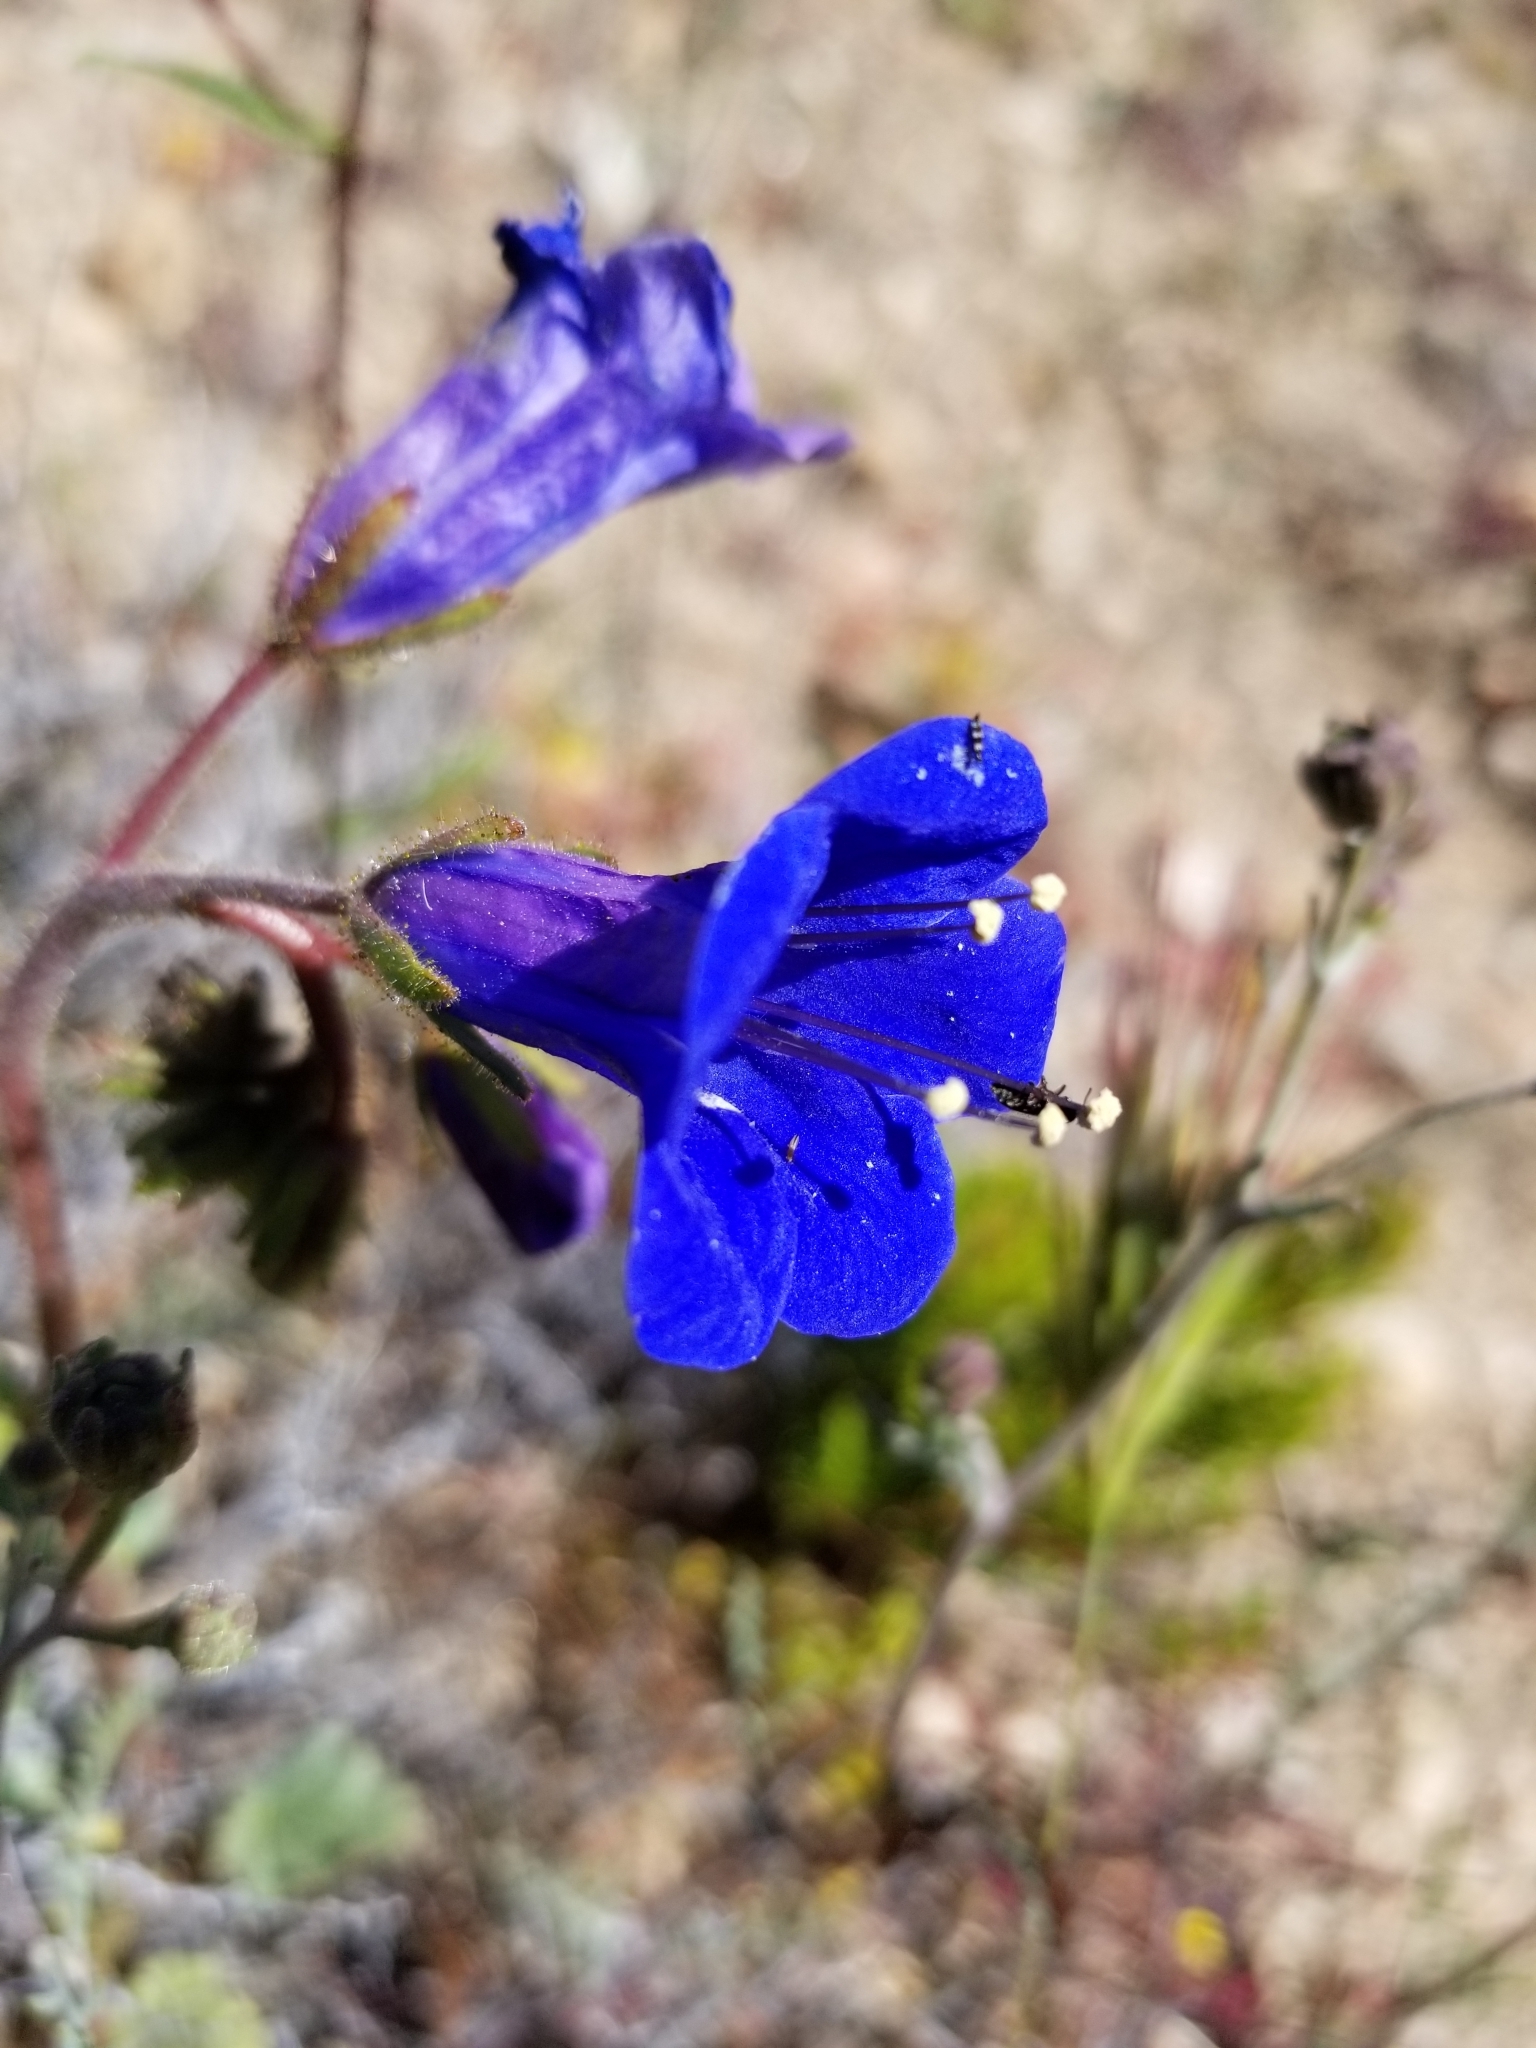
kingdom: Plantae
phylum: Tracheophyta
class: Magnoliopsida
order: Boraginales
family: Hydrophyllaceae
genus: Phacelia
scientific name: Phacelia campanularia
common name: California bluebell
